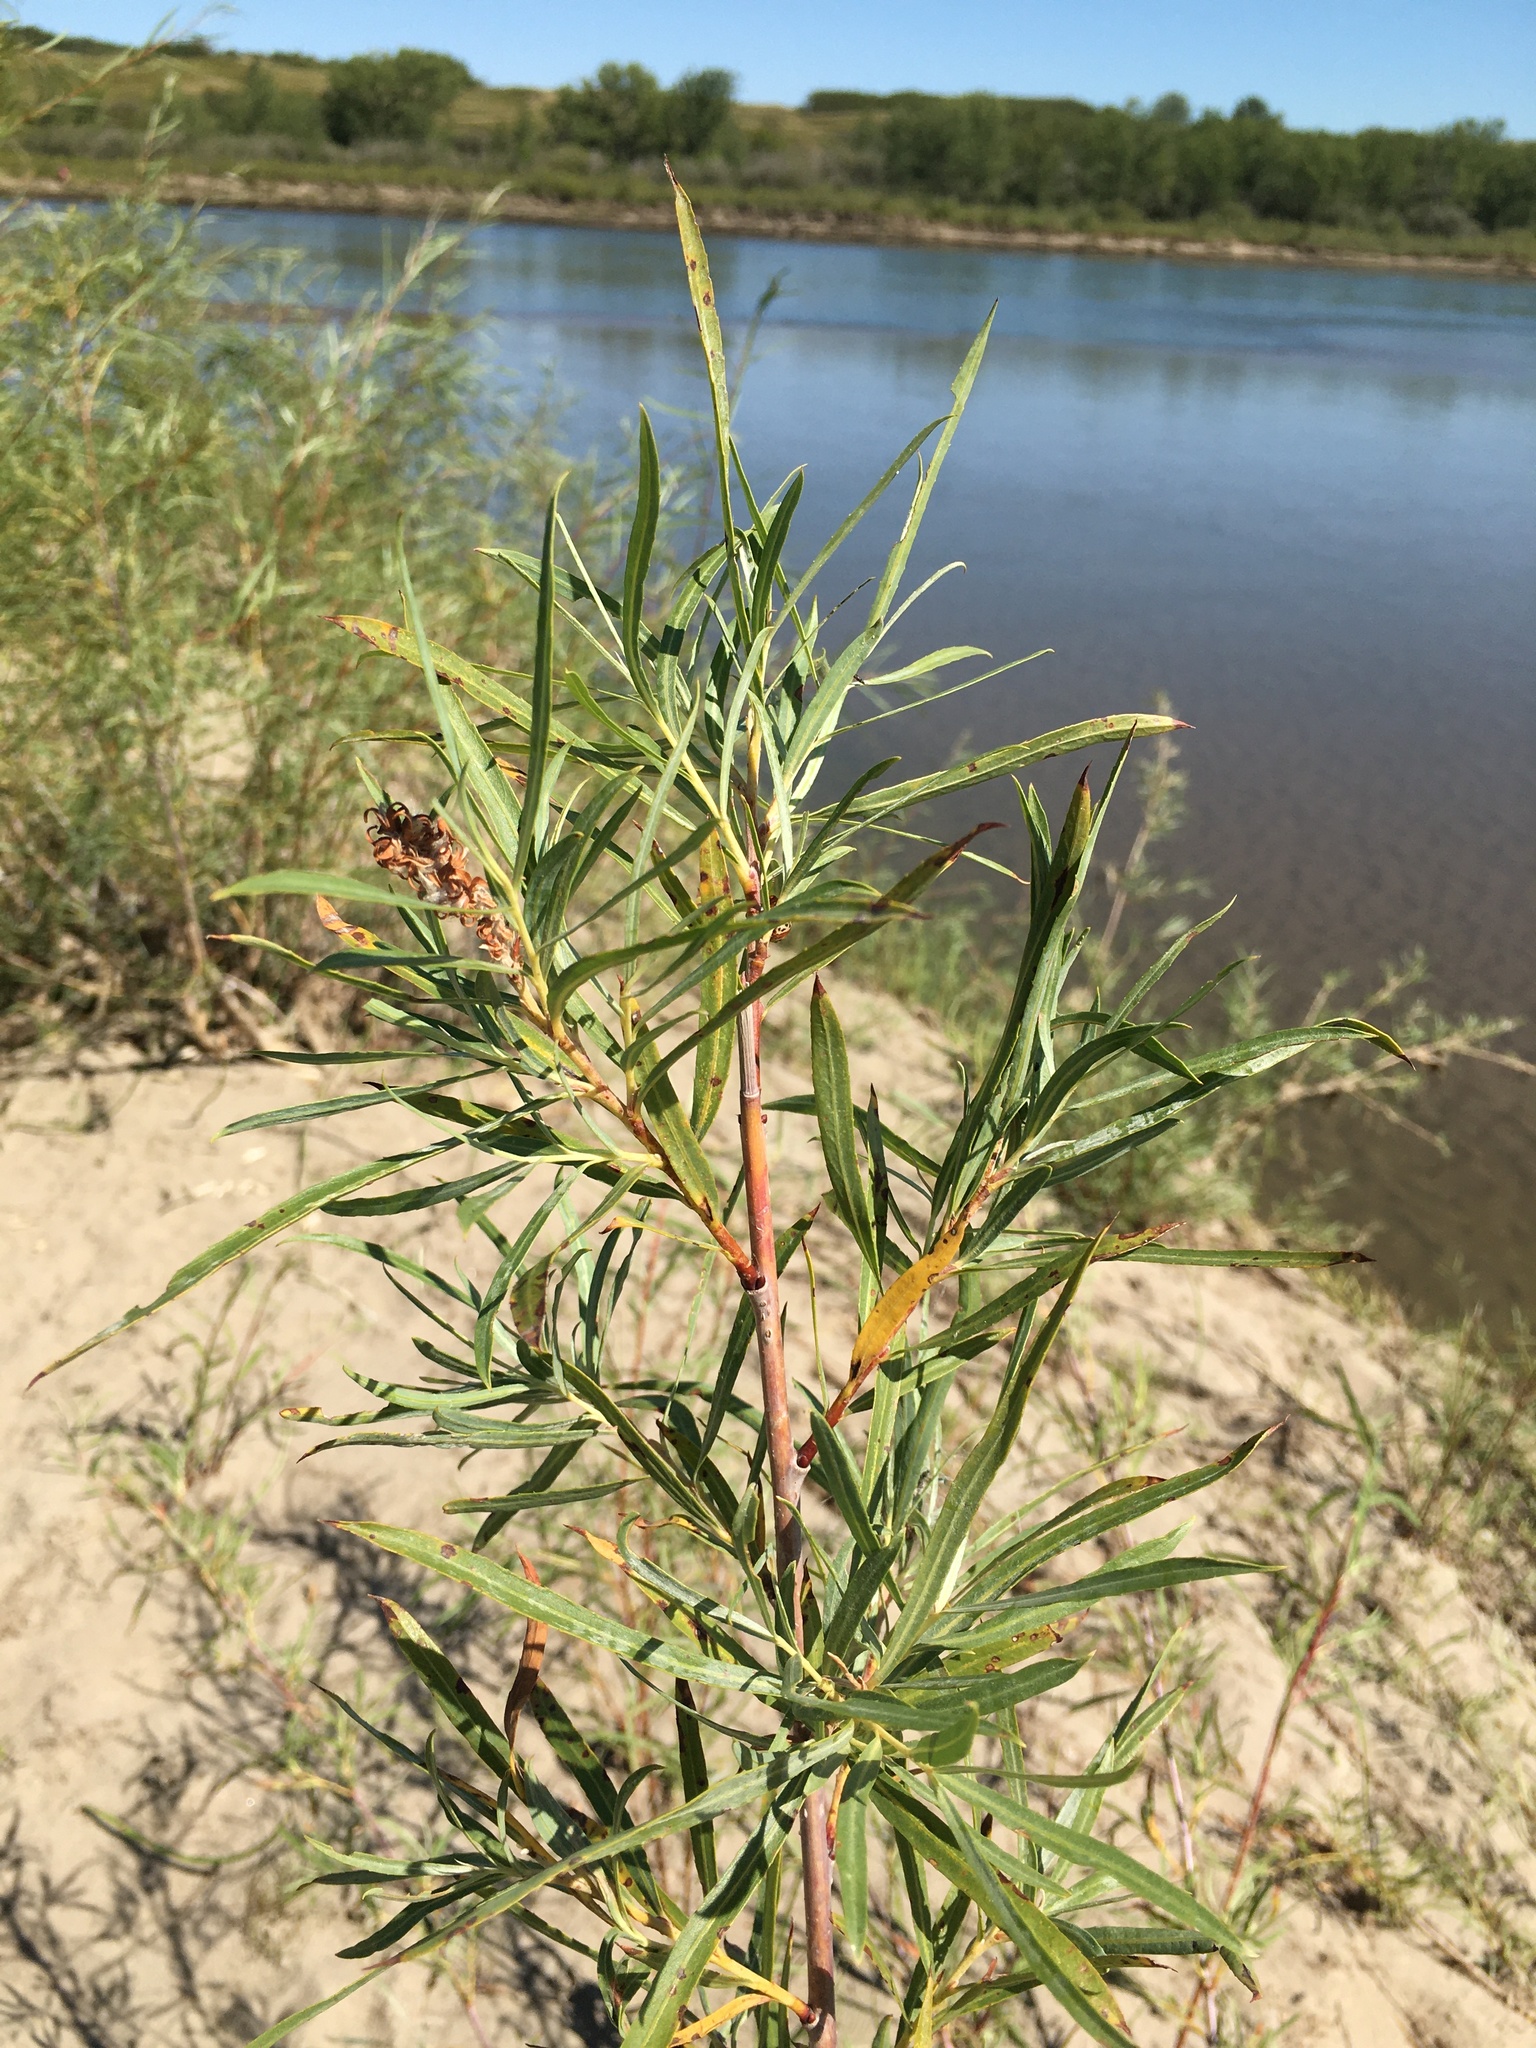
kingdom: Plantae
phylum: Tracheophyta
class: Magnoliopsida
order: Malpighiales
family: Salicaceae
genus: Salix
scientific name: Salix interior
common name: Sandbar willow
